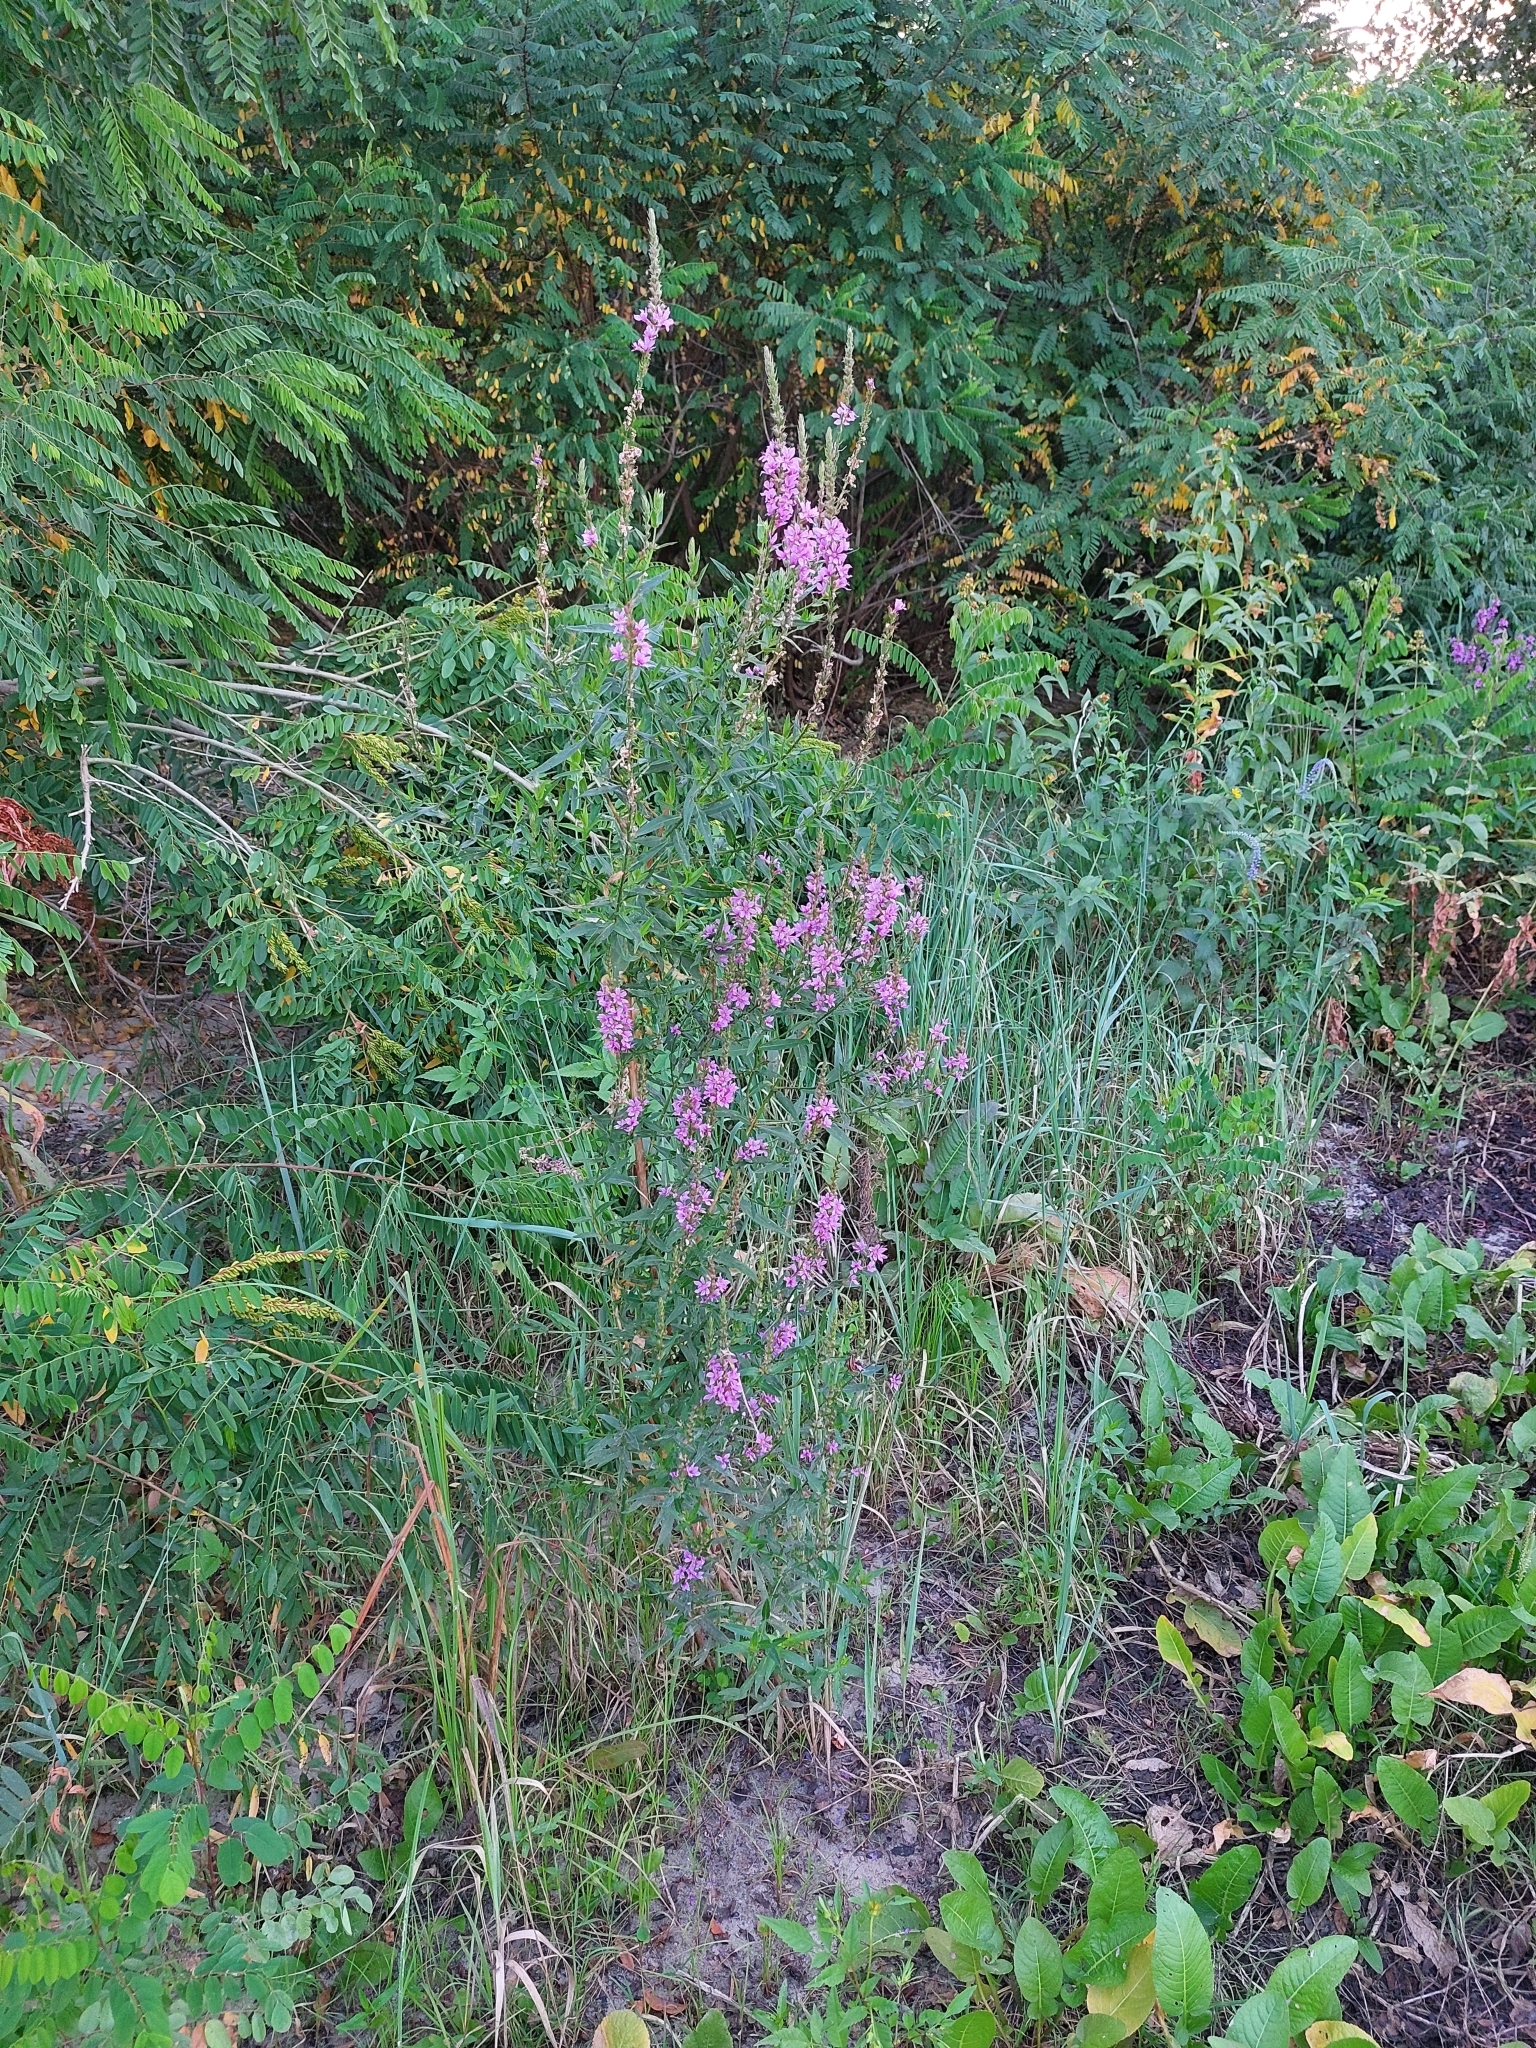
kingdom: Plantae
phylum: Tracheophyta
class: Magnoliopsida
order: Myrtales
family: Lythraceae
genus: Lythrum
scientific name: Lythrum salicaria
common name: Purple loosestrife
